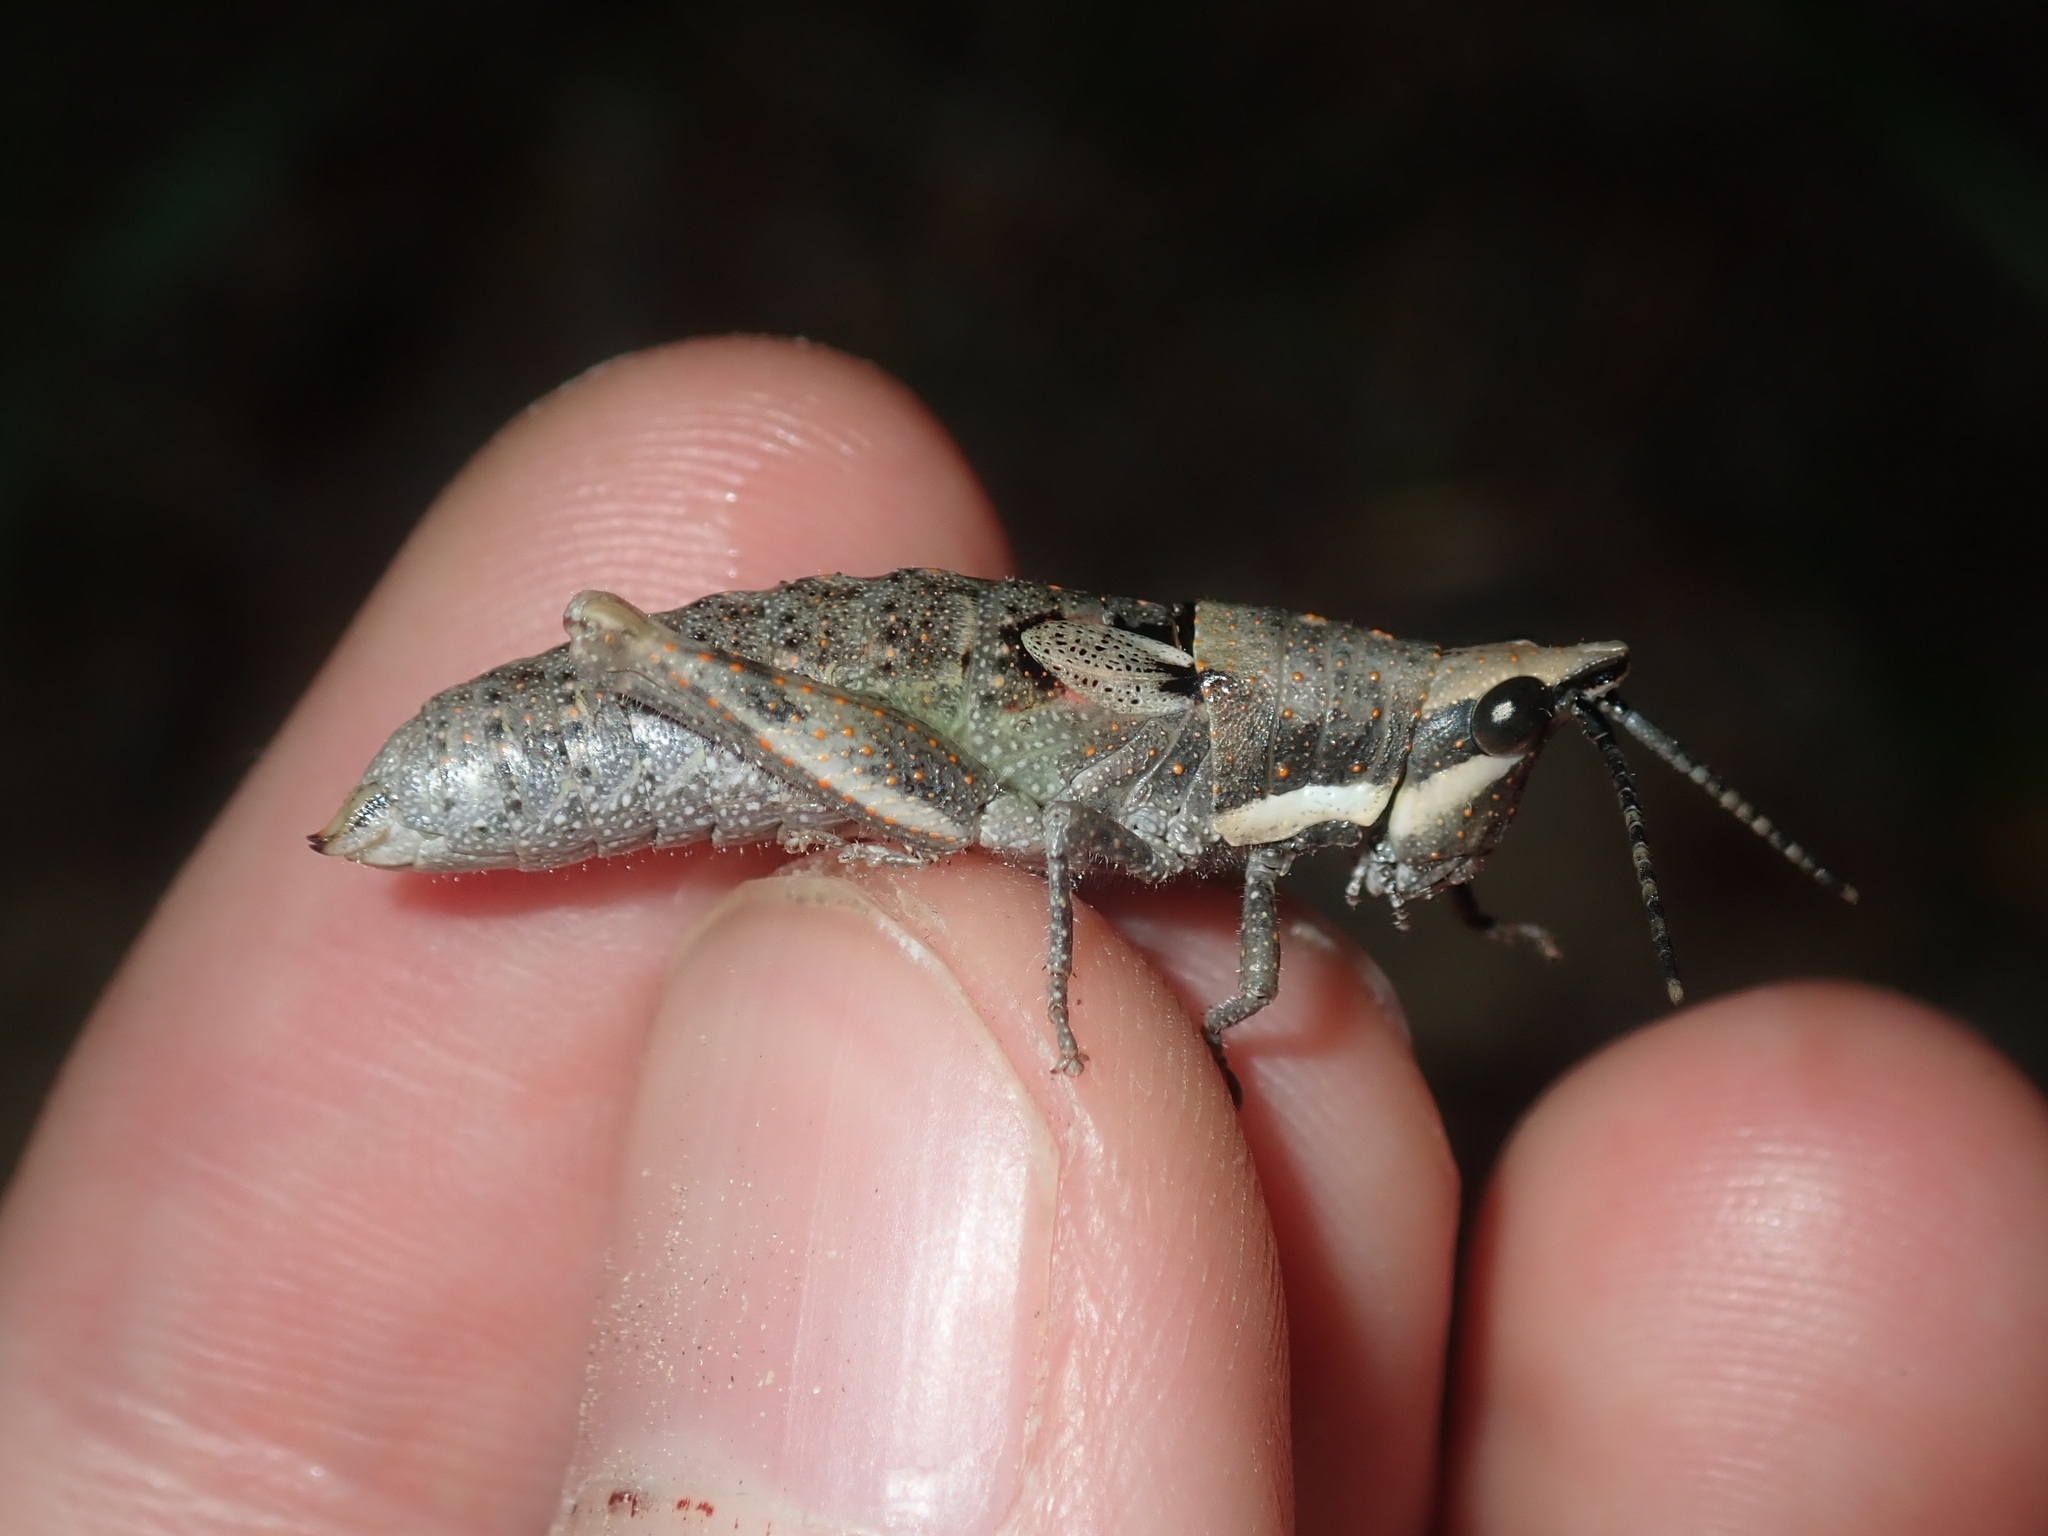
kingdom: Animalia
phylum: Arthropoda
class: Insecta
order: Orthoptera
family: Pyrgomorphidae
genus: Monistria
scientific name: Monistria latevittata
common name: Western coastal pyrgomorph
